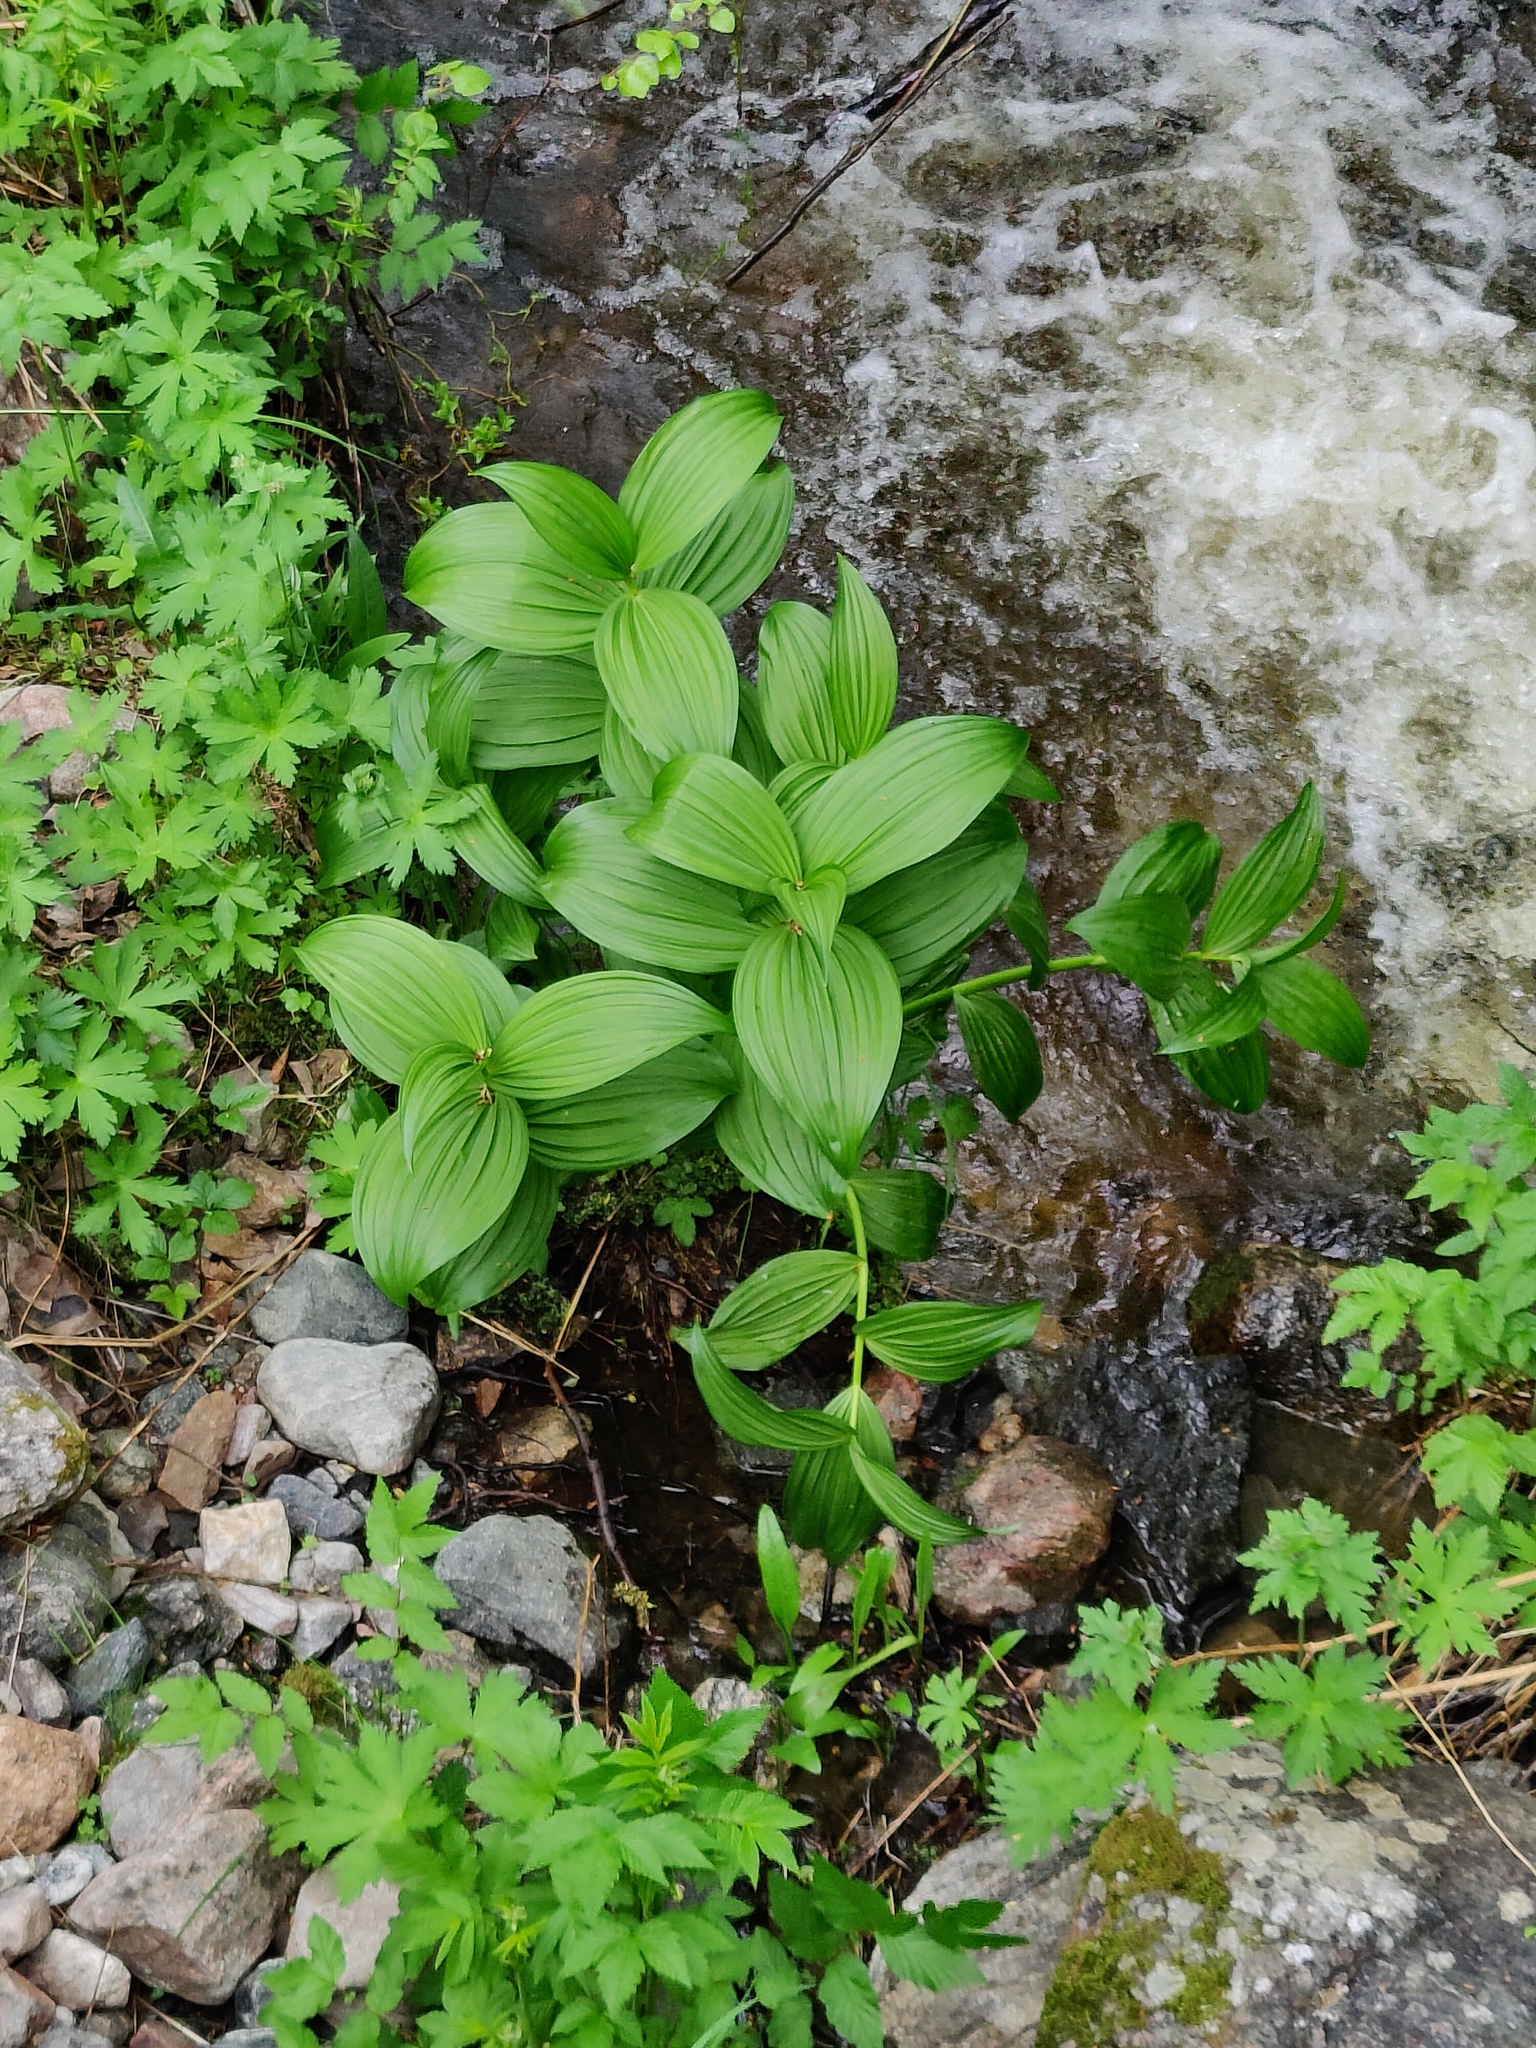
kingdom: Plantae
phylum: Tracheophyta
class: Liliopsida
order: Liliales
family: Melanthiaceae
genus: Veratrum
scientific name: Veratrum lobelianum
